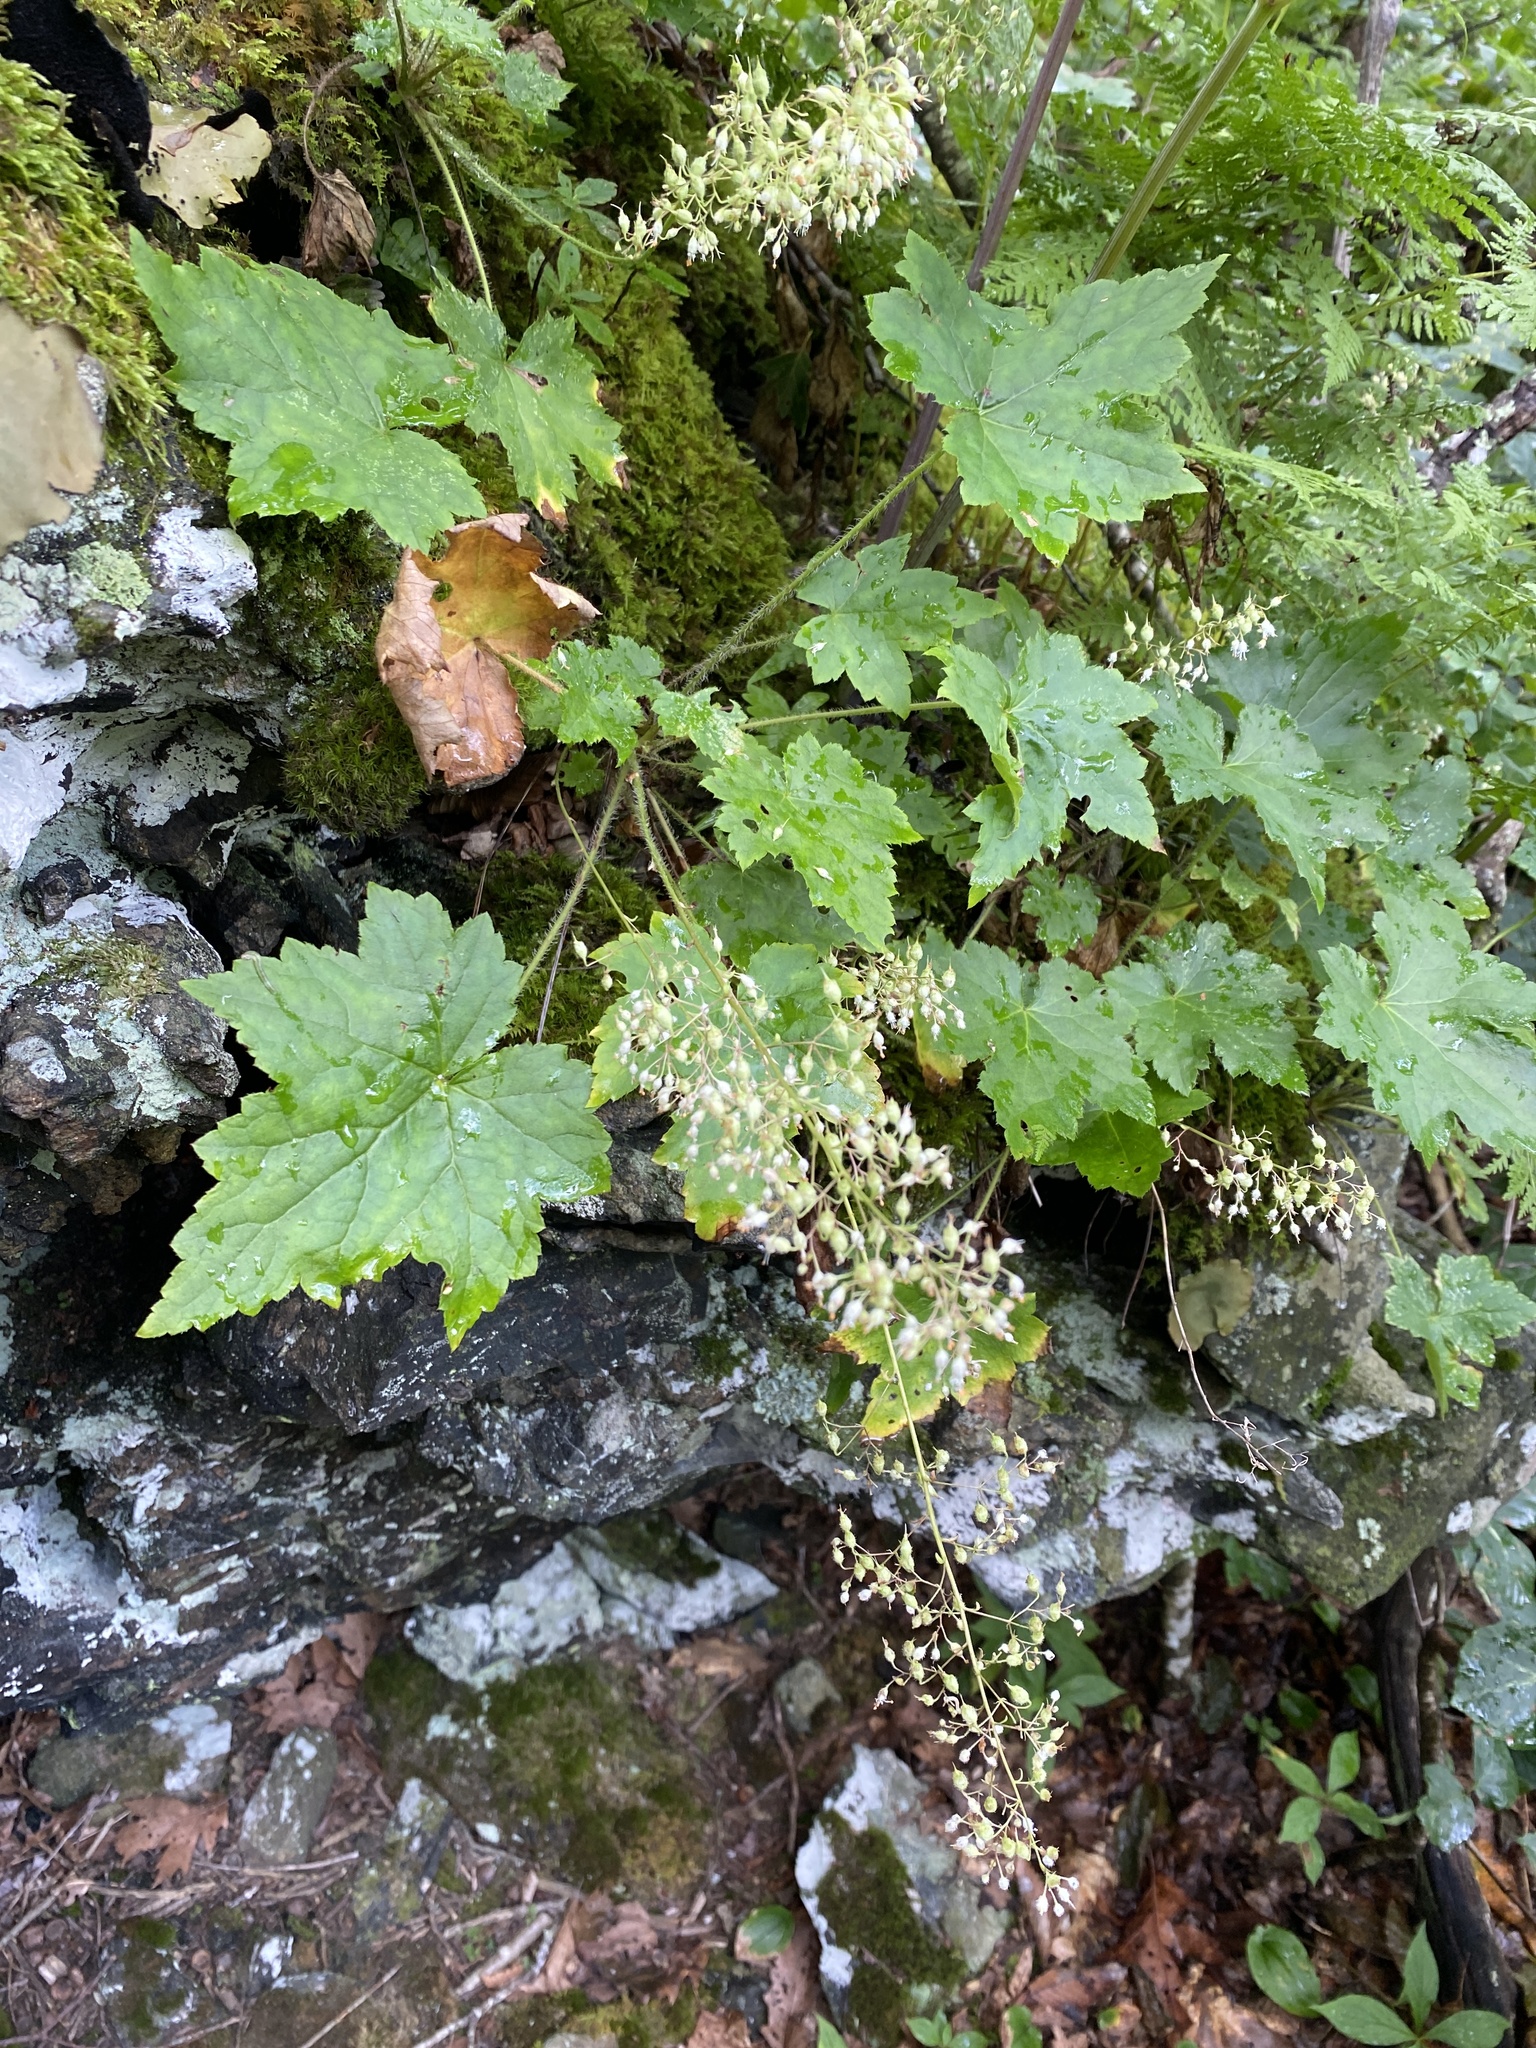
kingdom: Plantae
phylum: Tracheophyta
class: Magnoliopsida
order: Saxifragales
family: Saxifragaceae
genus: Heuchera
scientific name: Heuchera villosa
